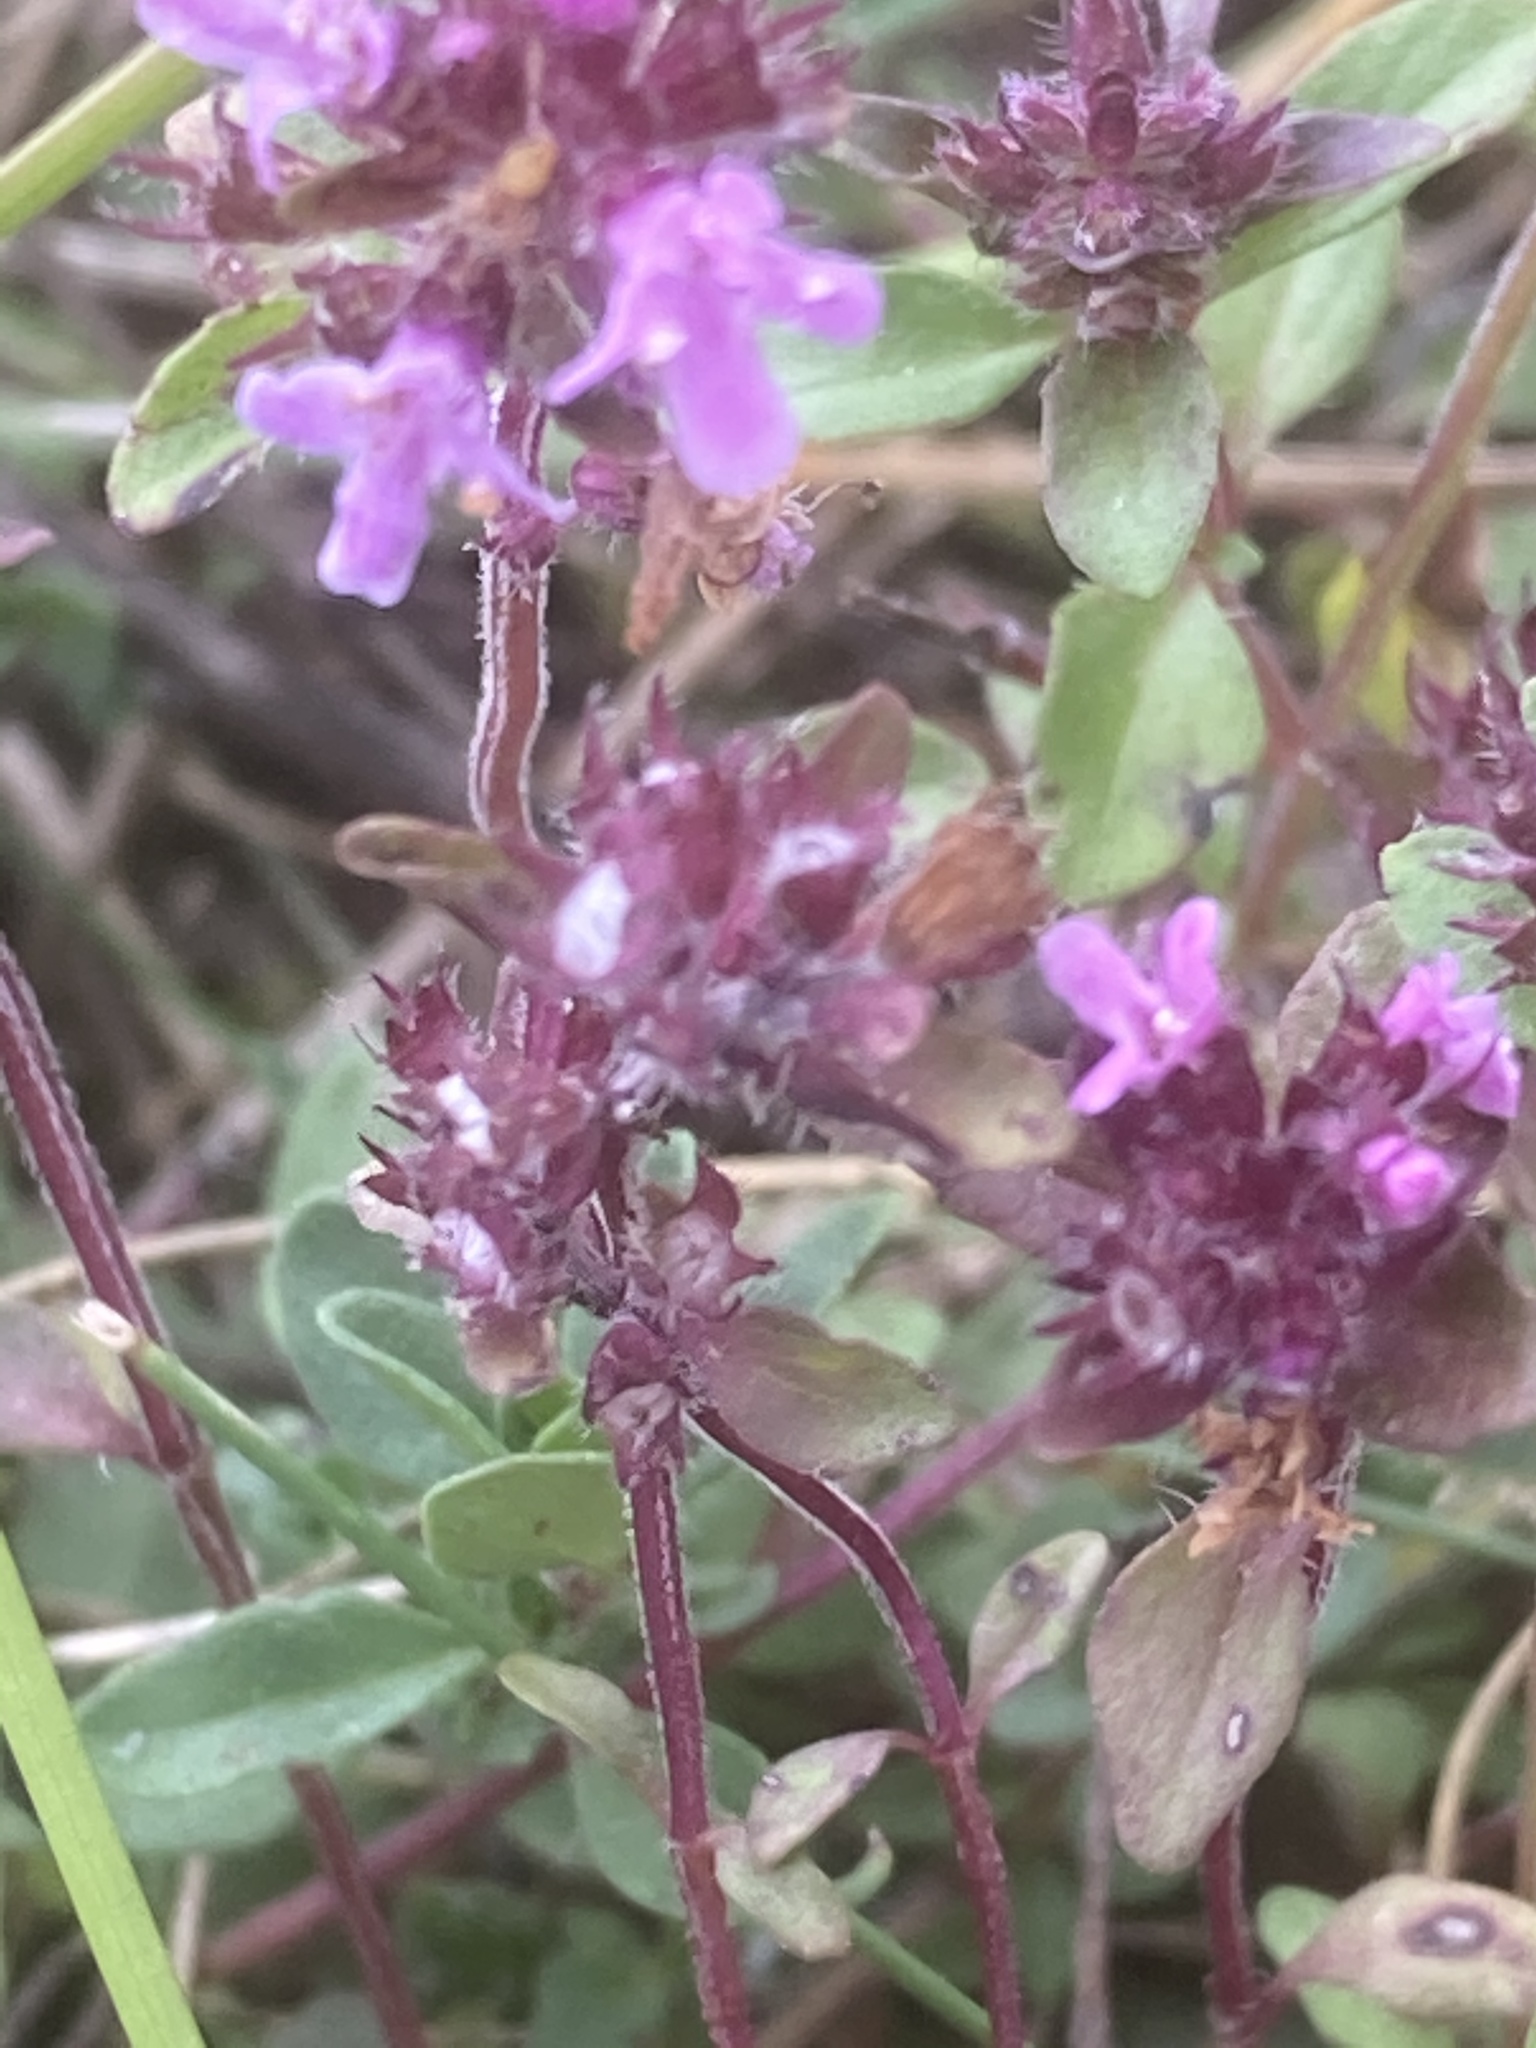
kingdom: Plantae
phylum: Tracheophyta
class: Magnoliopsida
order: Lamiales
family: Lamiaceae
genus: Thymus
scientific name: Thymus pulegioides
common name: Large thyme
